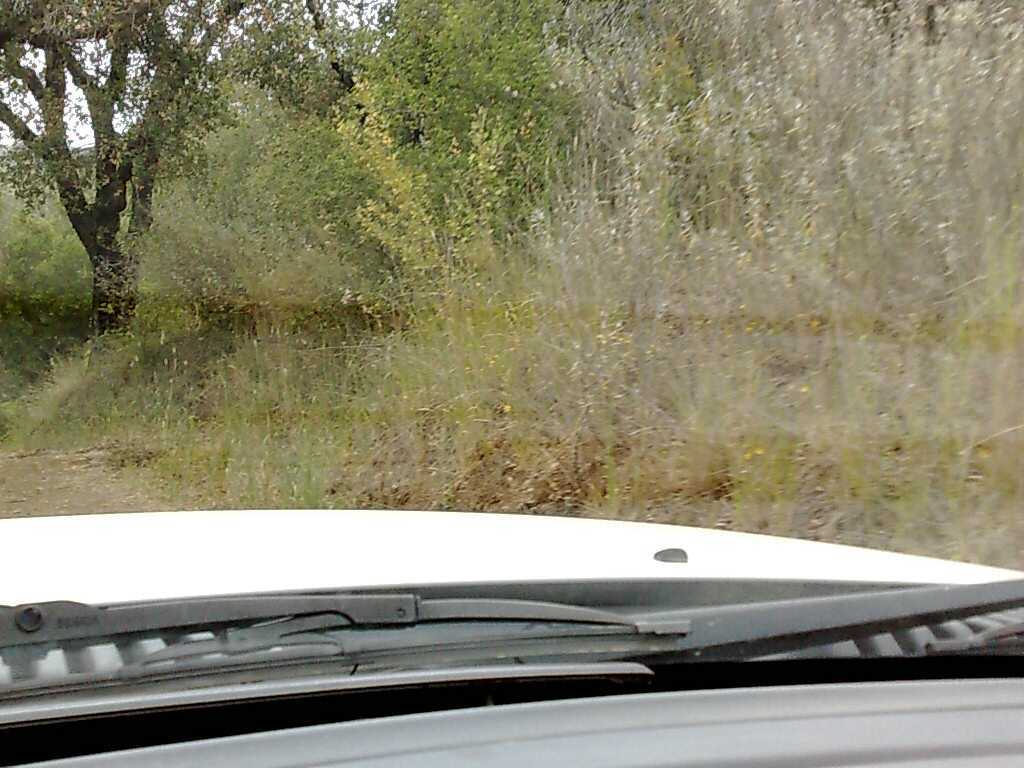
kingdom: Plantae
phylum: Tracheophyta
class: Magnoliopsida
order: Lamiales
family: Lamiaceae
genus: Salvia
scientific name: Salvia leucophylla
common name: Purple sage
